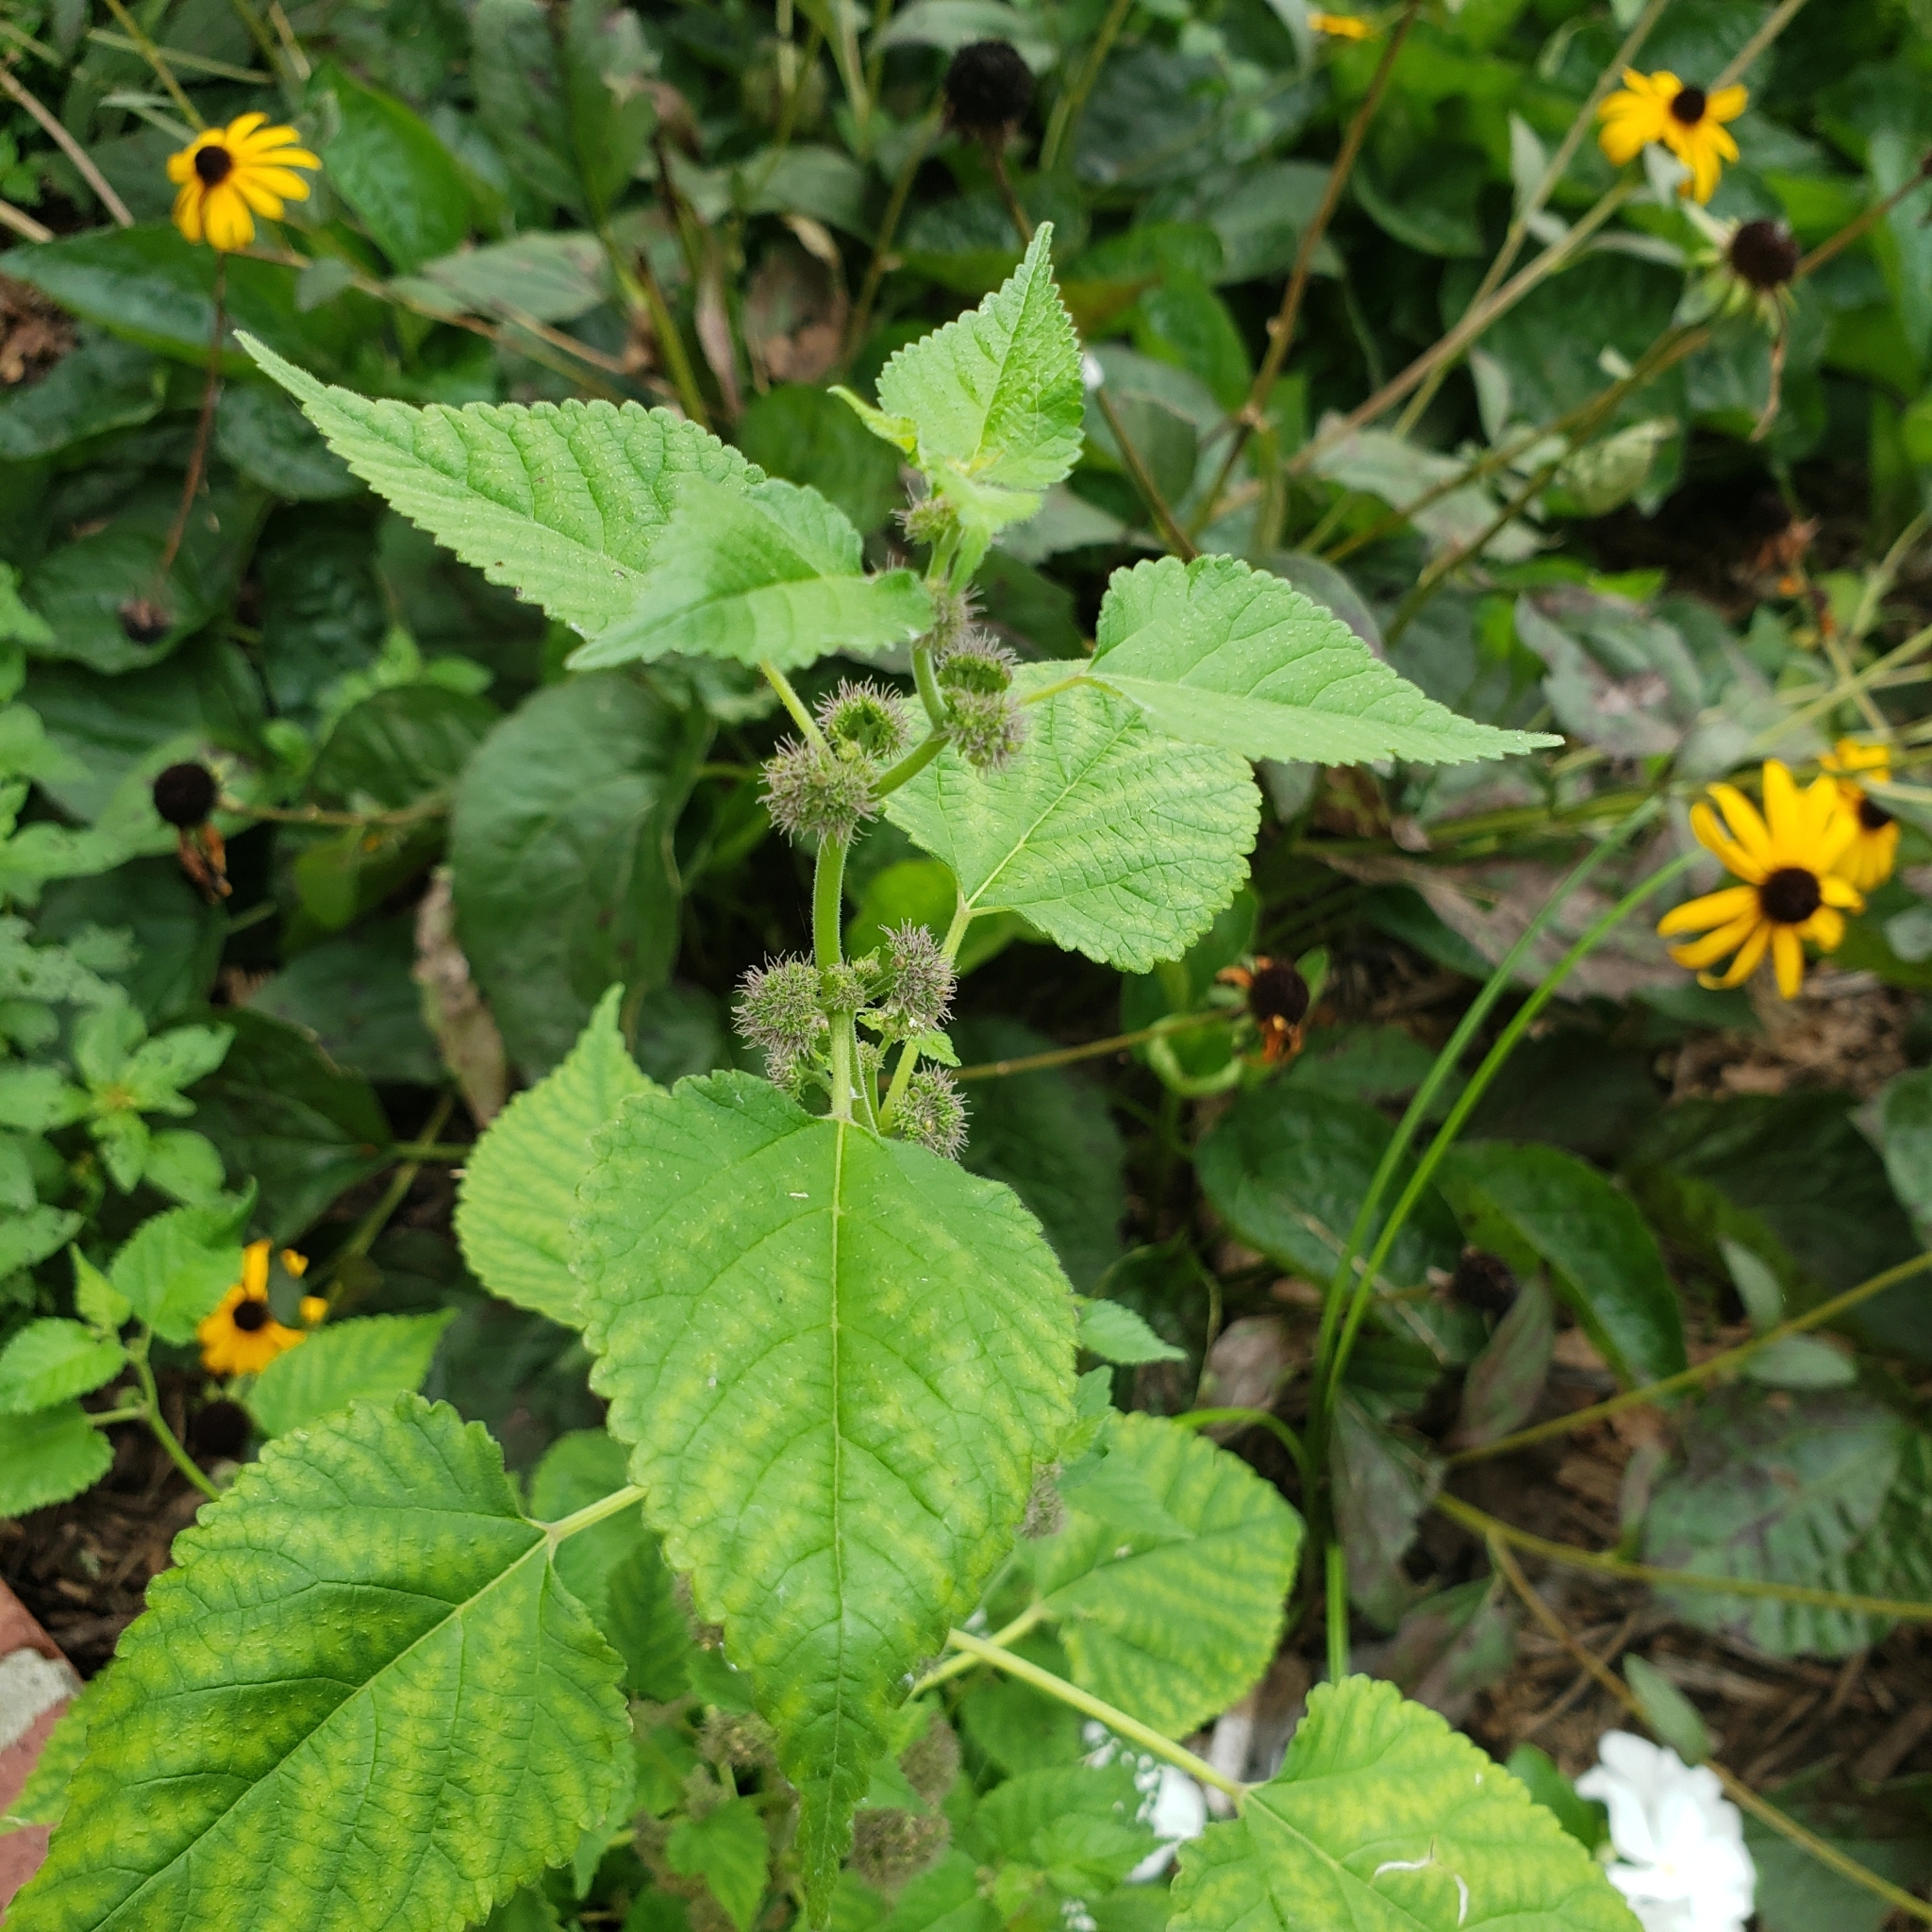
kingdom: Plantae
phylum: Tracheophyta
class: Magnoliopsida
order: Rosales
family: Moraceae
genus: Fatoua
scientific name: Fatoua villosa
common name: Hairy crabweed
